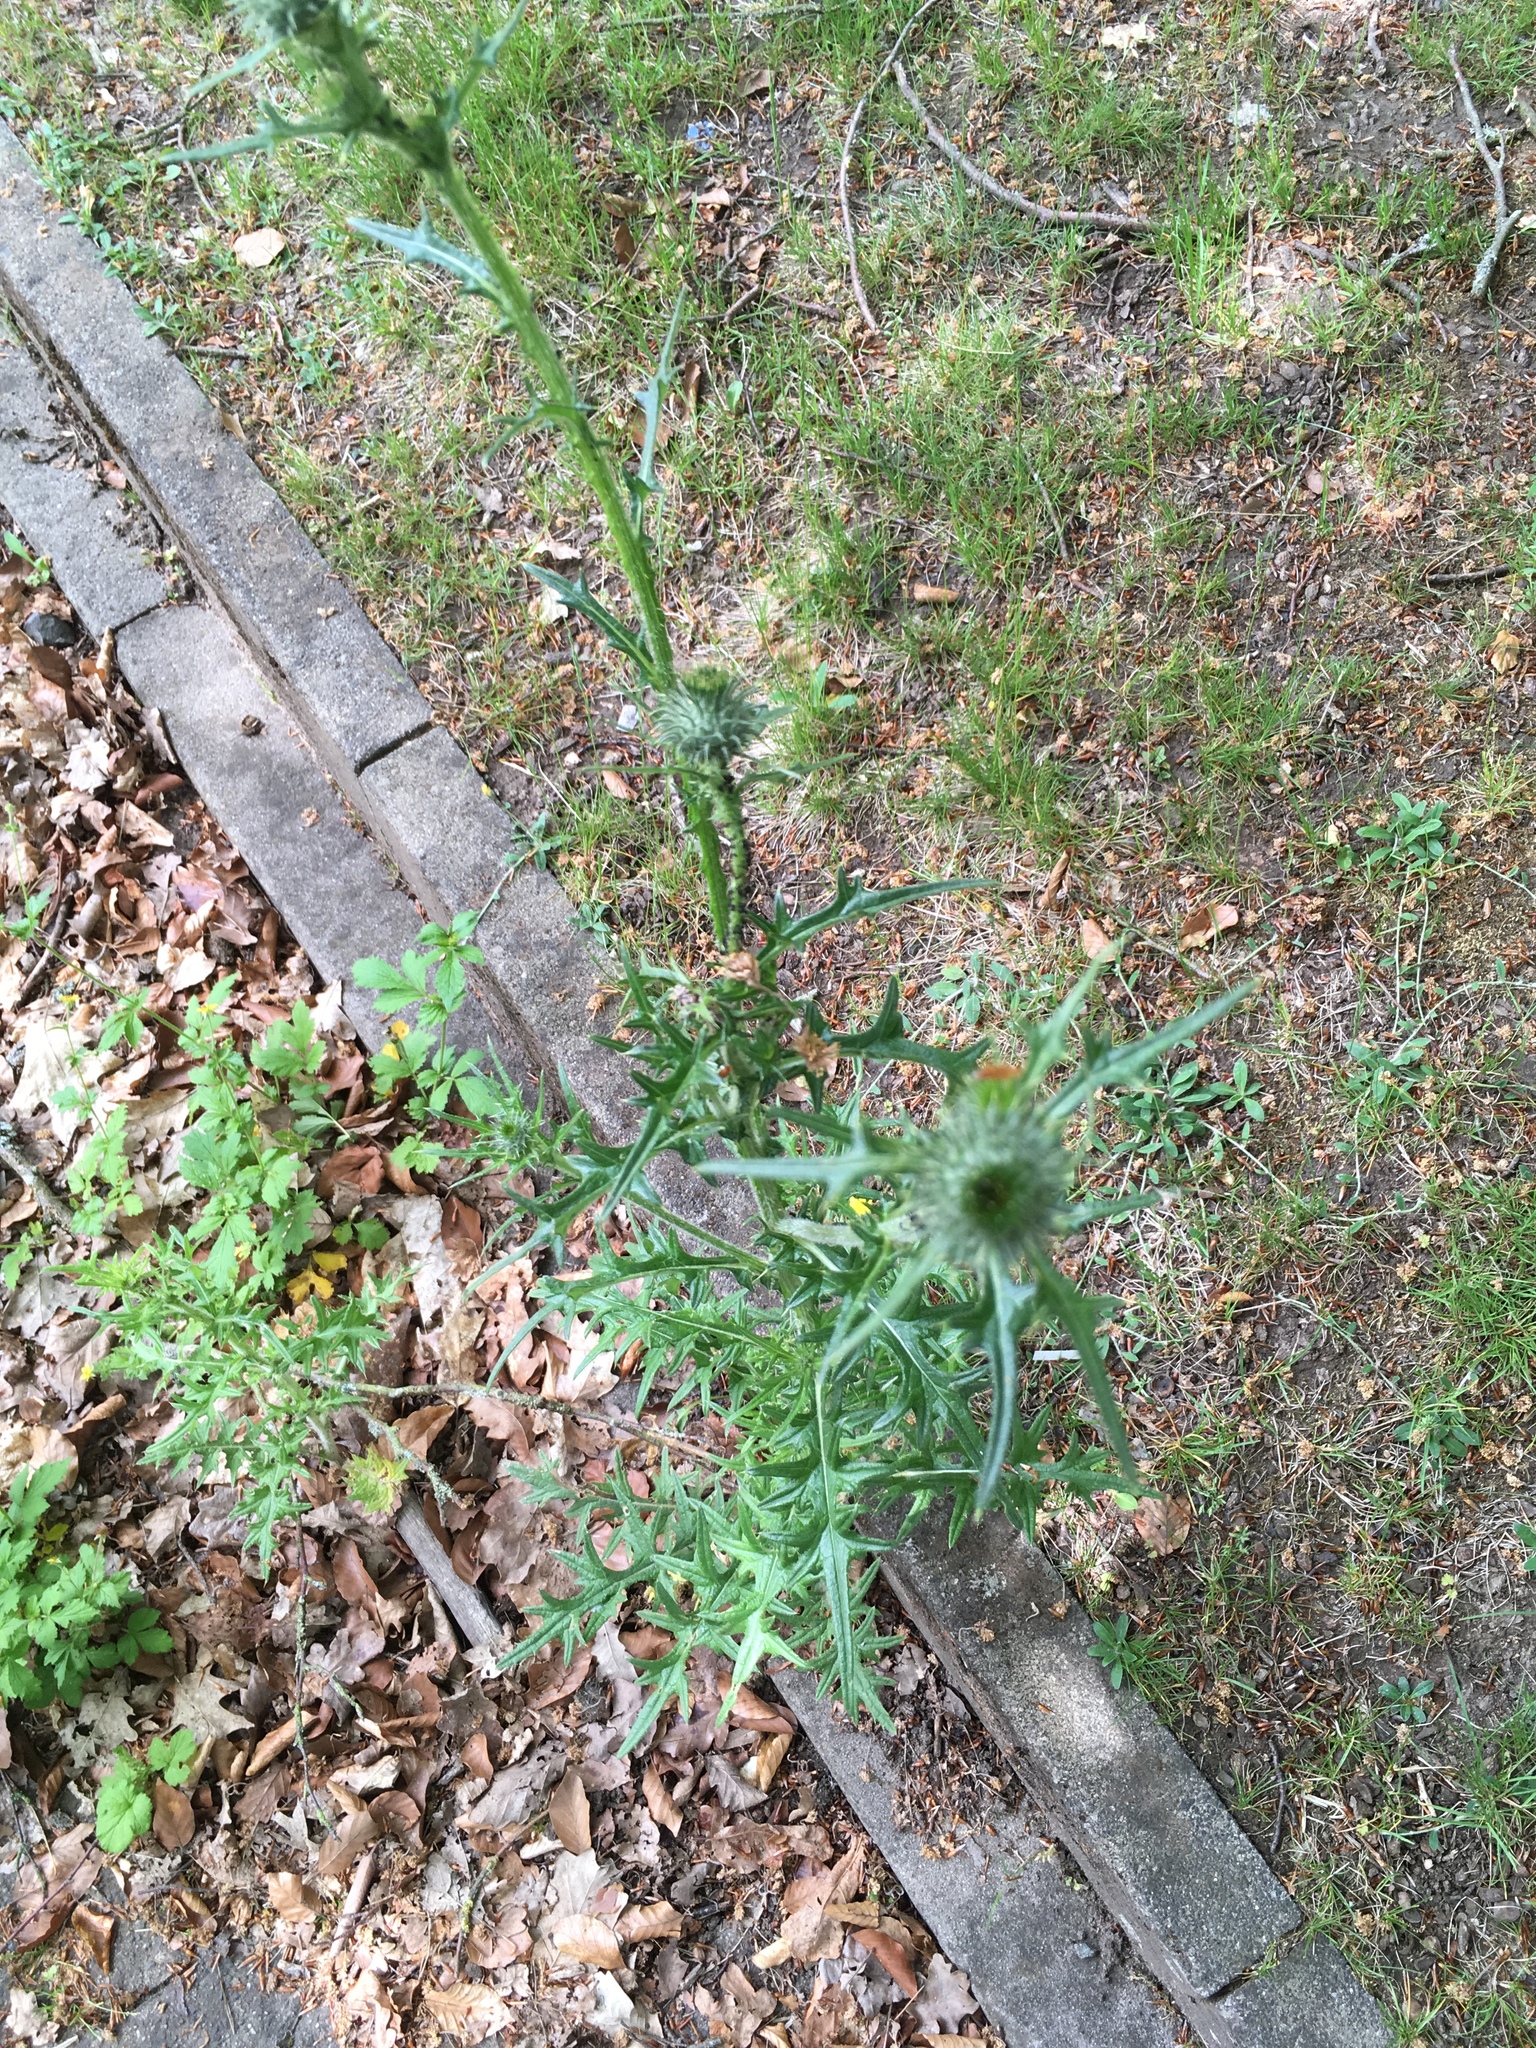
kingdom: Plantae
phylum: Tracheophyta
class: Magnoliopsida
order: Asterales
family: Asteraceae
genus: Cirsium
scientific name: Cirsium vulgare
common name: Bull thistle
